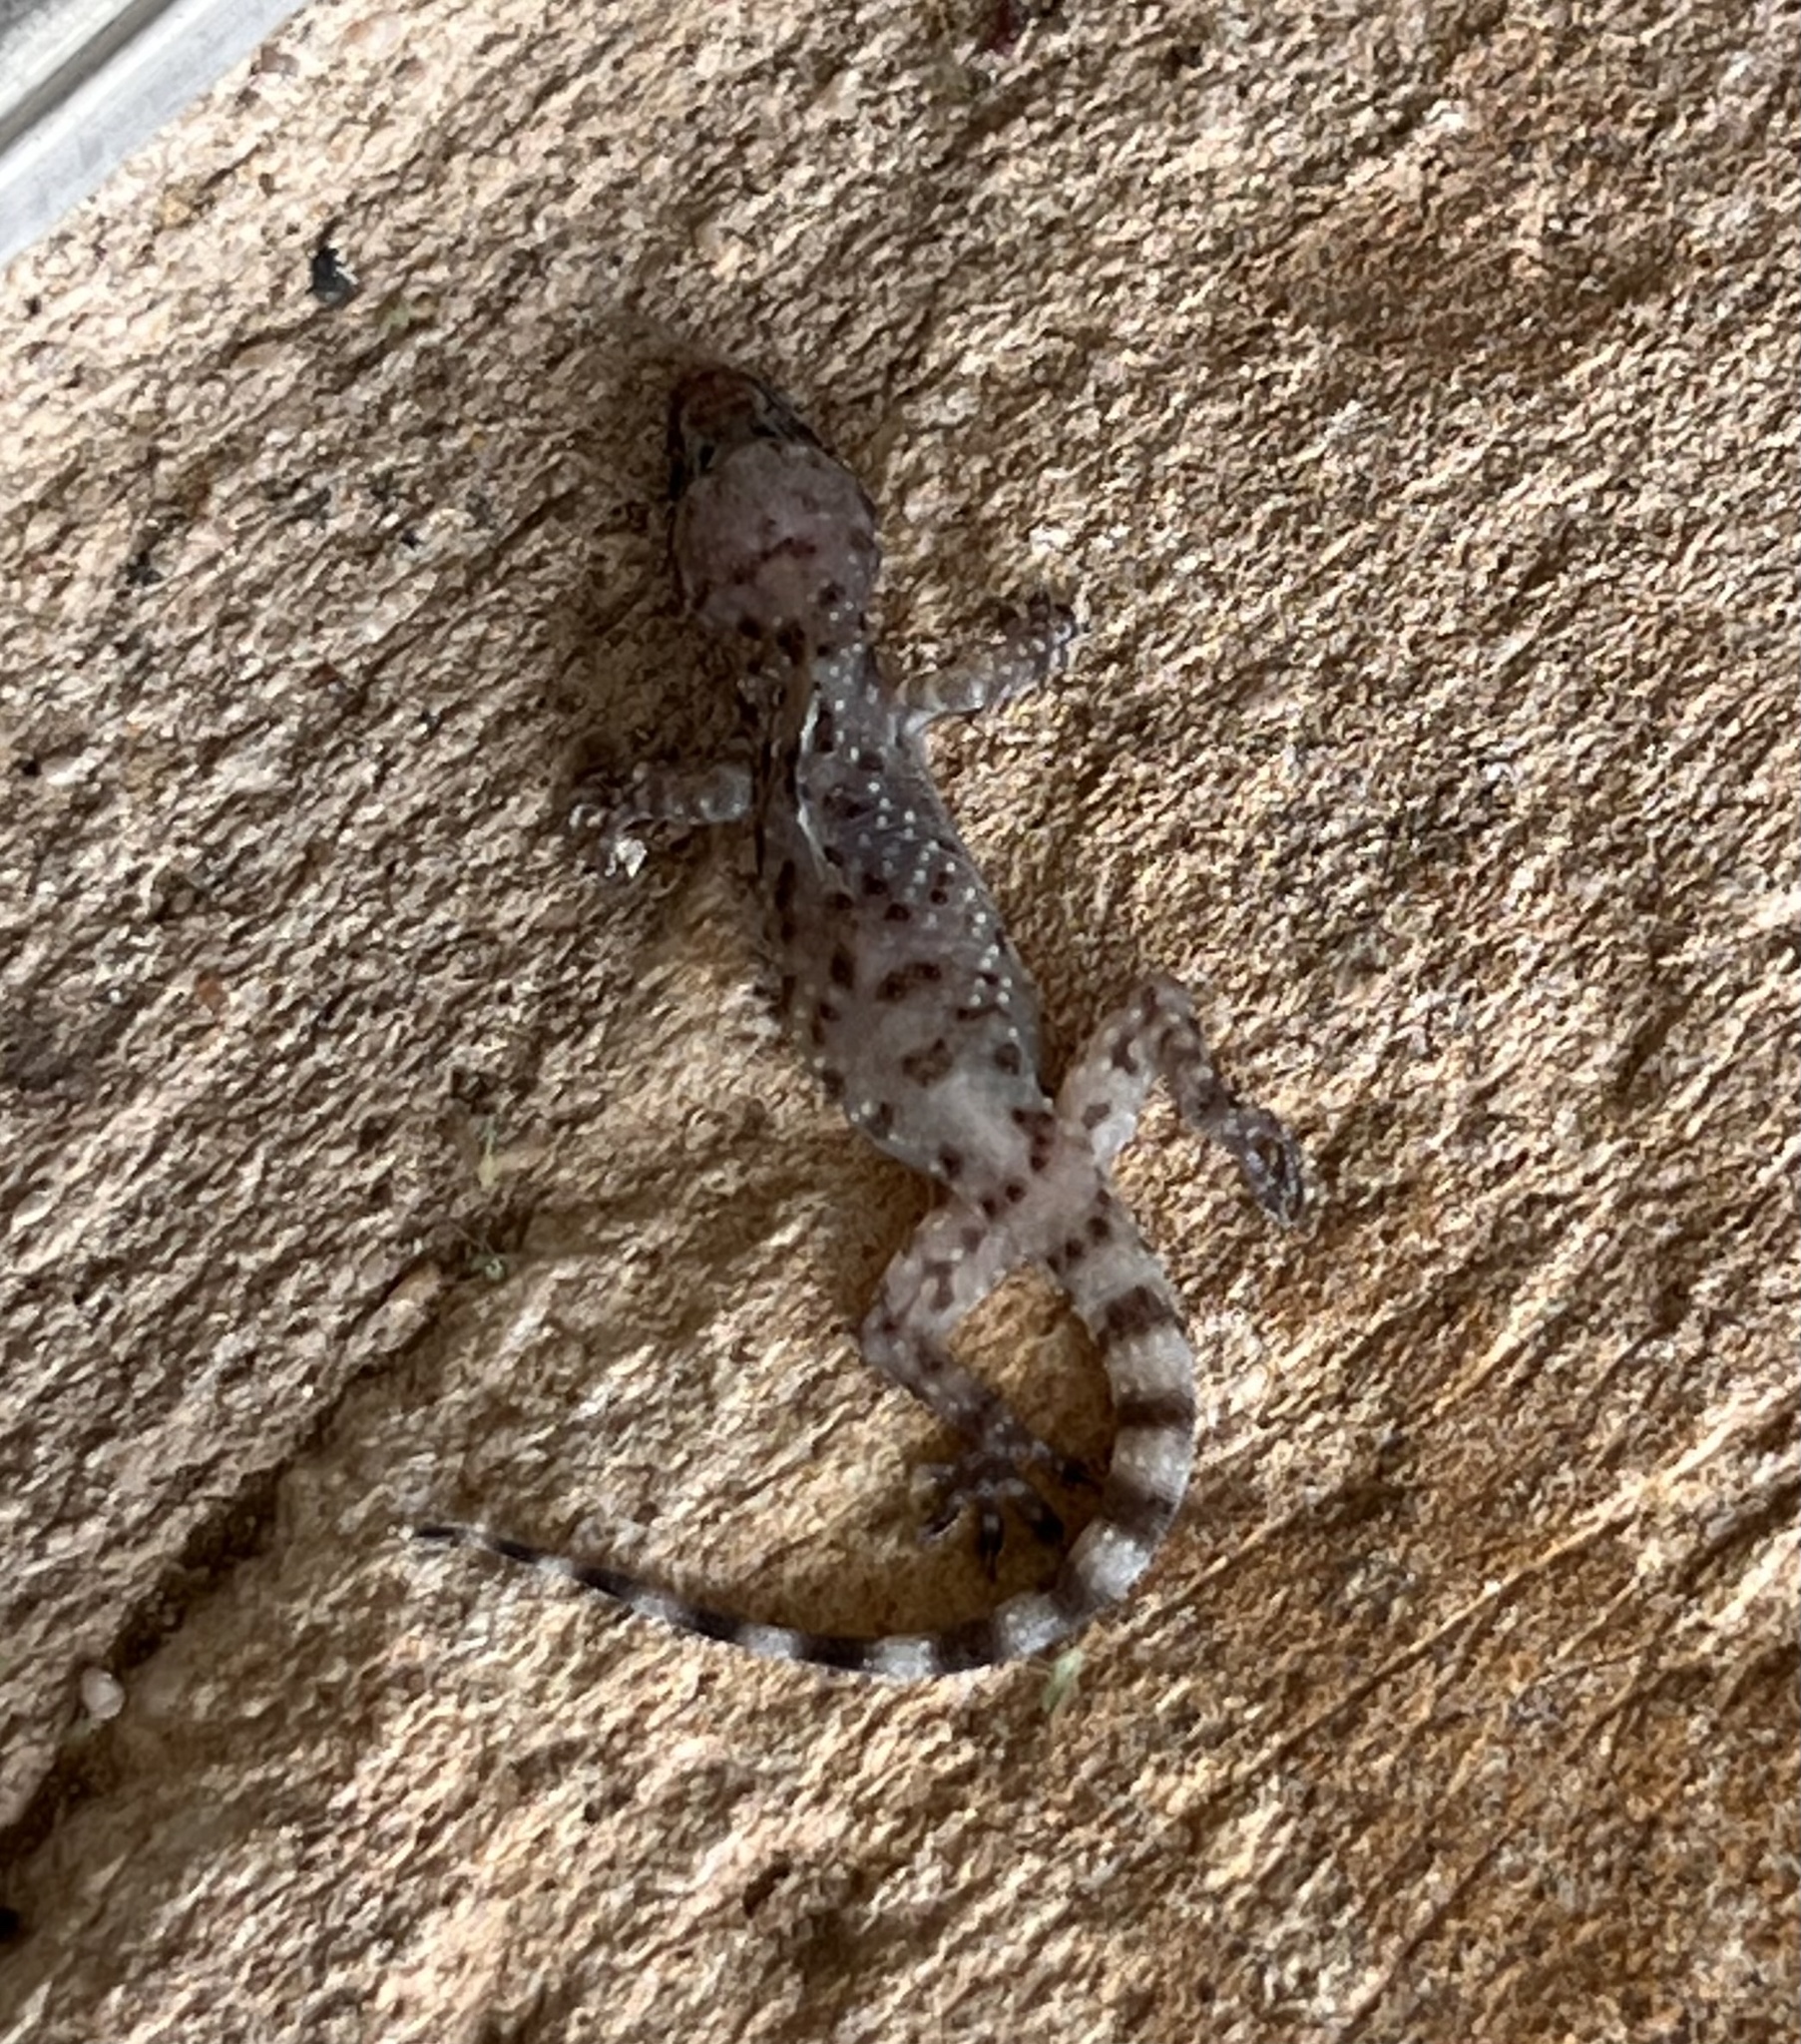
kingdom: Animalia
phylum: Chordata
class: Squamata
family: Gekkonidae
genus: Hemidactylus
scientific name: Hemidactylus turcicus
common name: Turkish gecko
